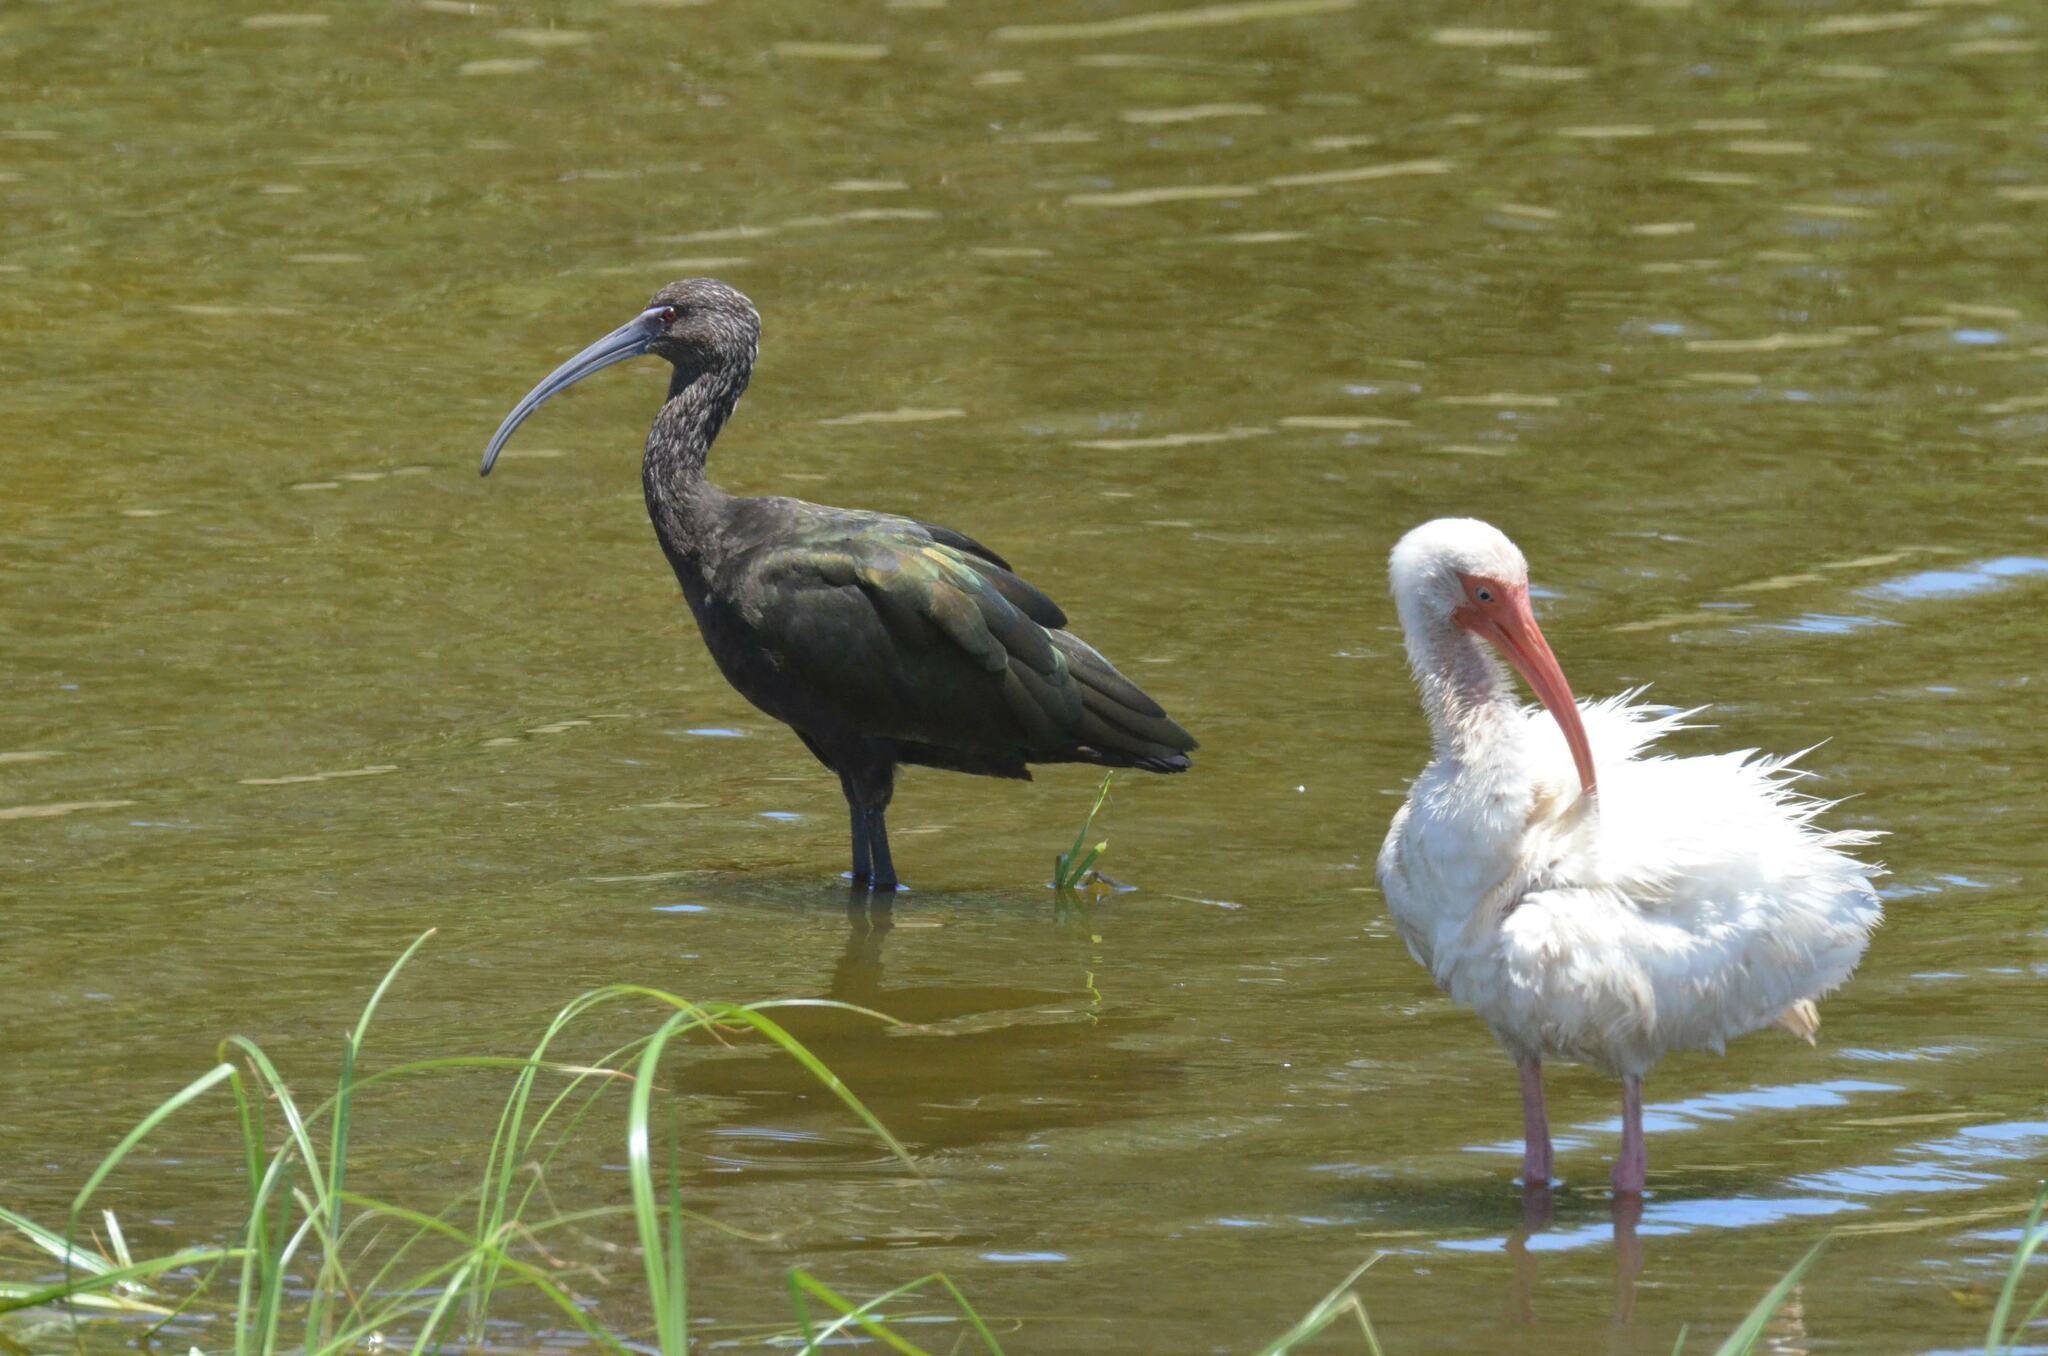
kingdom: Animalia
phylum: Chordata
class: Aves
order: Pelecaniformes
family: Threskiornithidae
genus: Plegadis
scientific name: Plegadis falcinellus
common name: Glossy ibis
